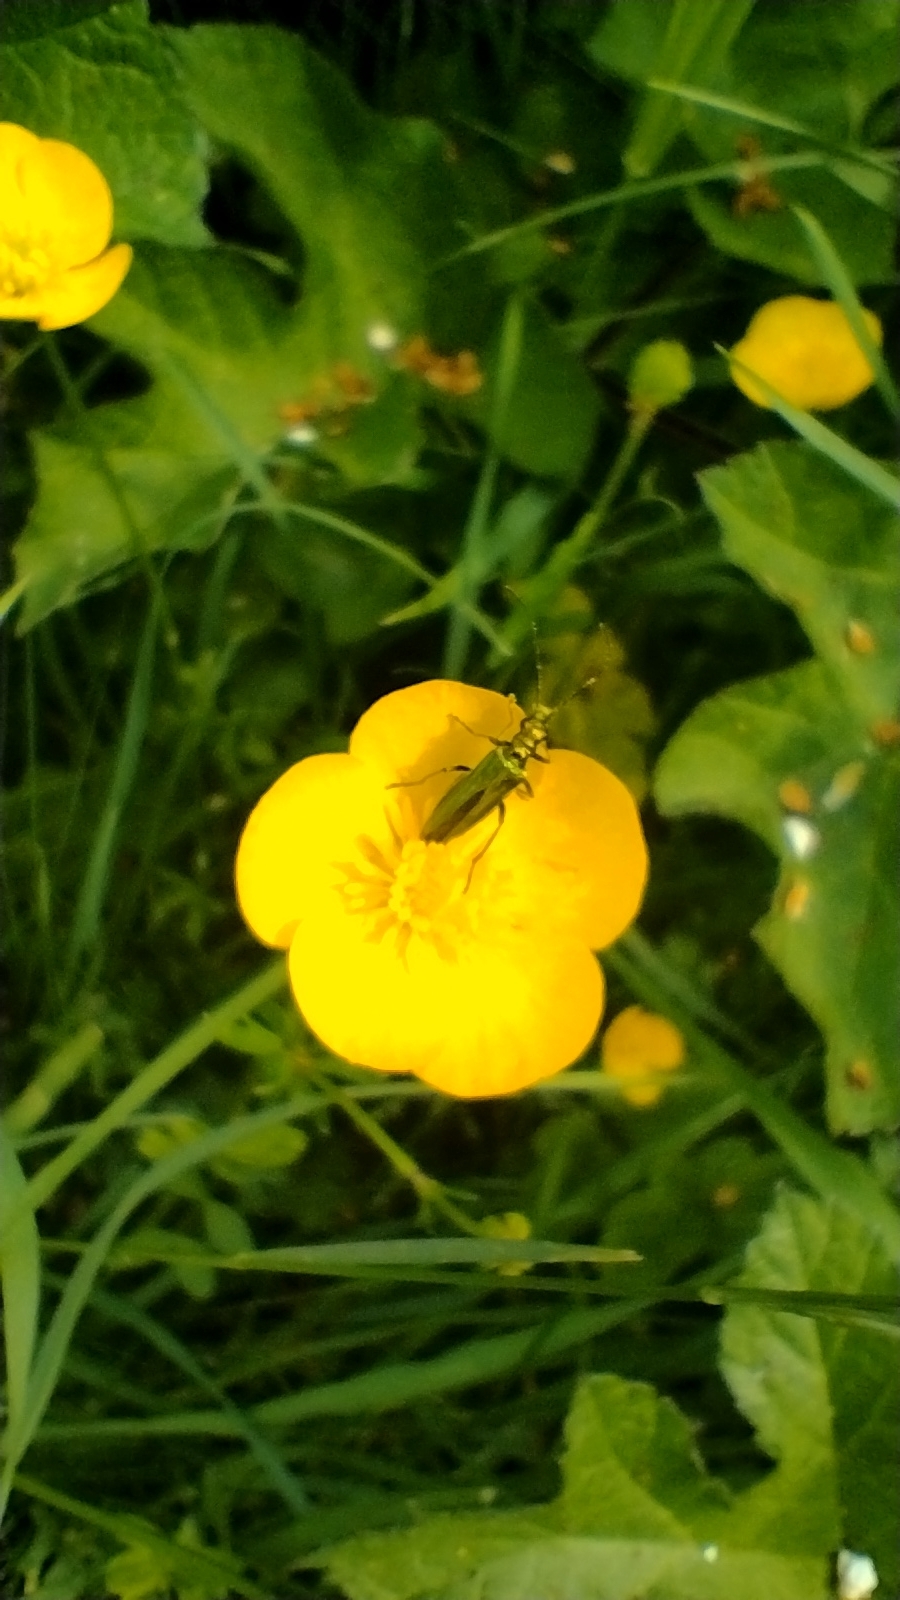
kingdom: Animalia
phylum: Arthropoda
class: Insecta
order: Coleoptera
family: Oedemeridae
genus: Oedemera
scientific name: Oedemera nobilis
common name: Swollen-thighed beetle
